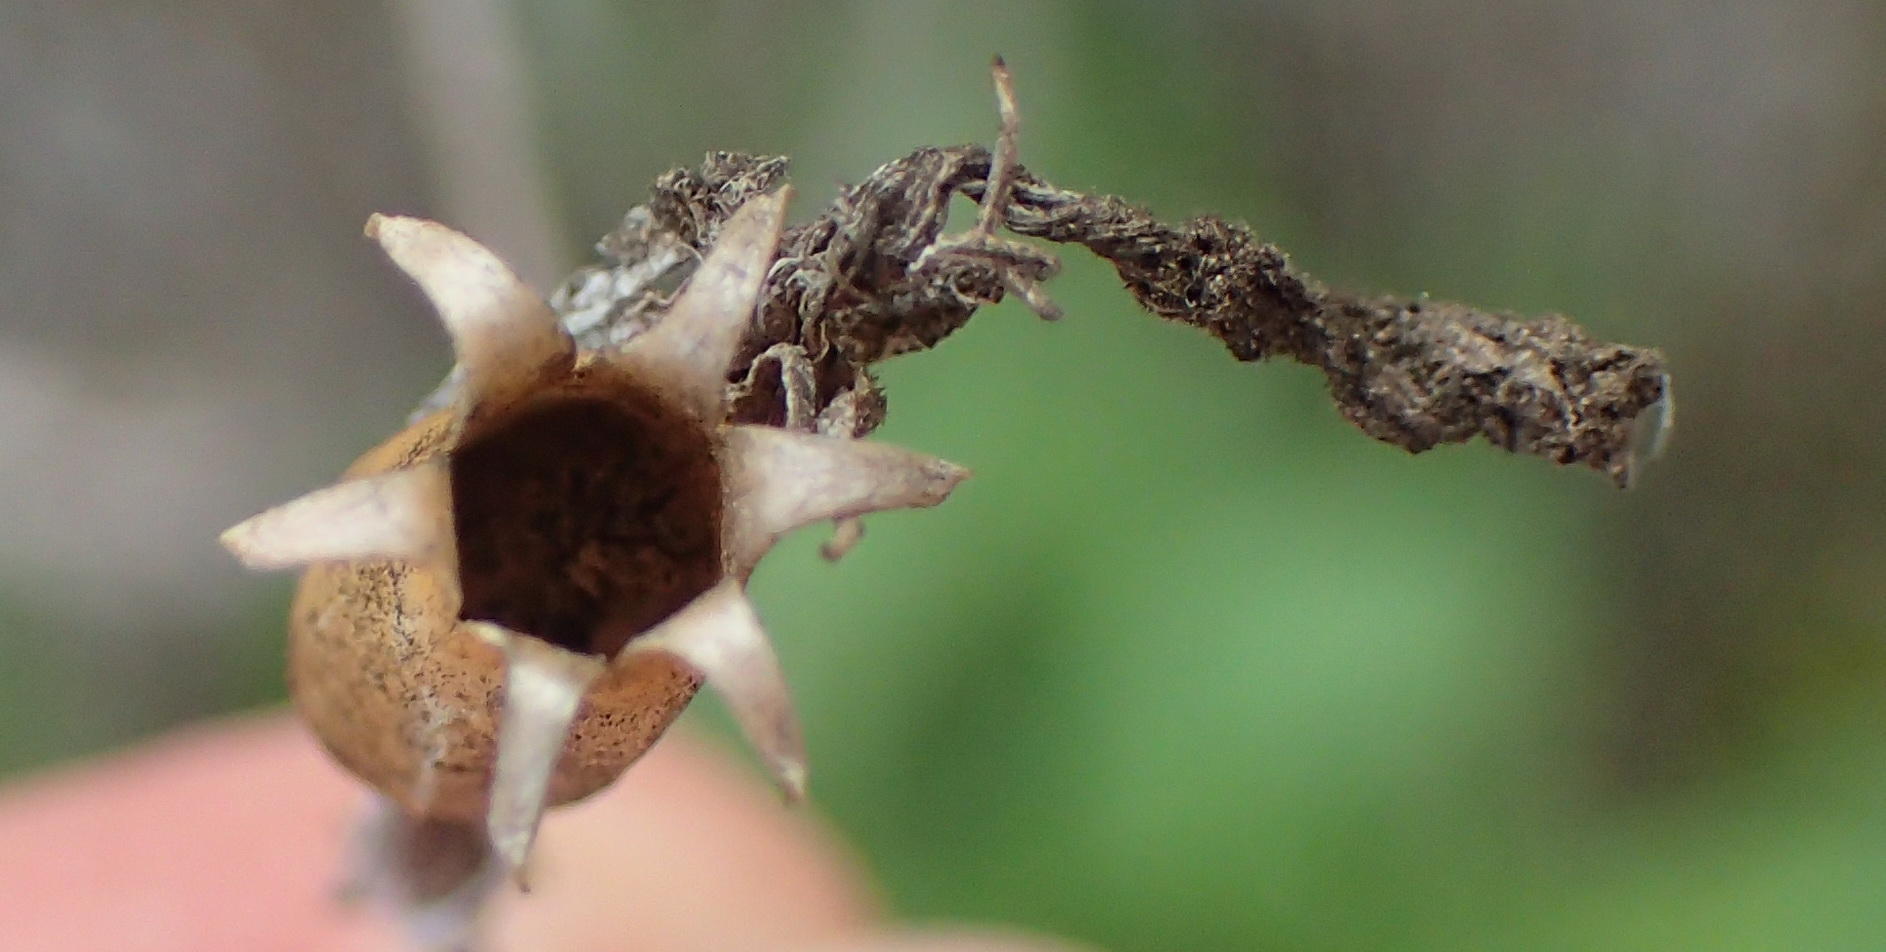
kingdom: Plantae
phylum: Tracheophyta
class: Magnoliopsida
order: Caryophyllales
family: Caryophyllaceae
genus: Silene
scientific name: Silene undulata
